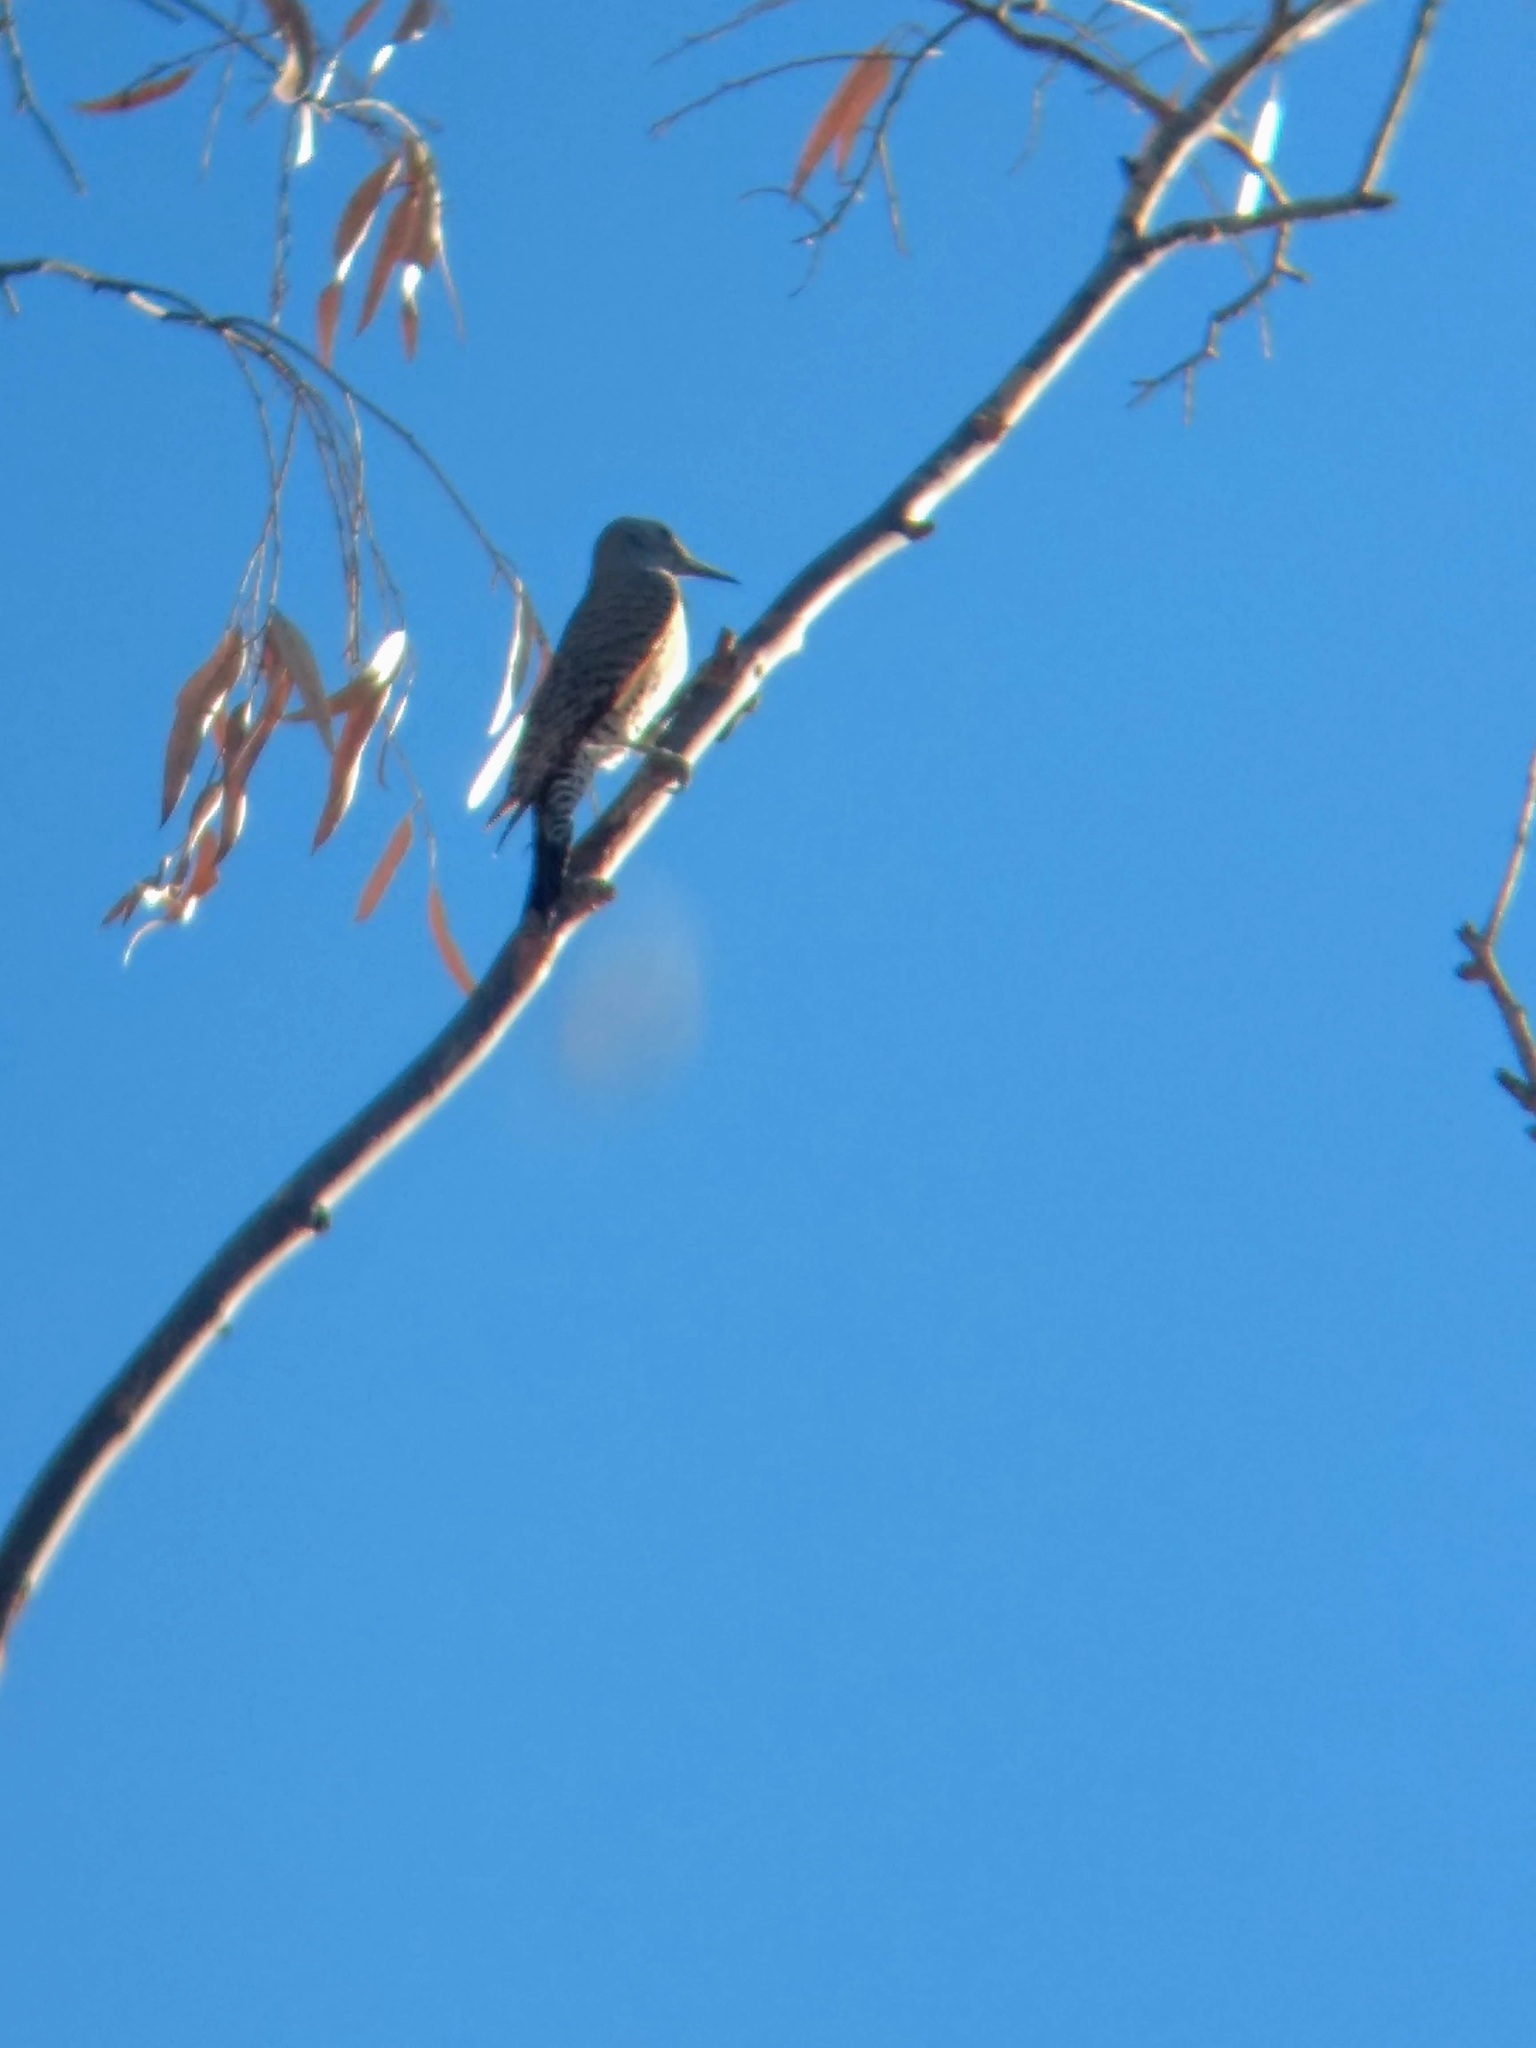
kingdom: Animalia
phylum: Chordata
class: Aves
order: Piciformes
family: Picidae
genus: Colaptes
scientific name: Colaptes auratus
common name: Northern flicker
